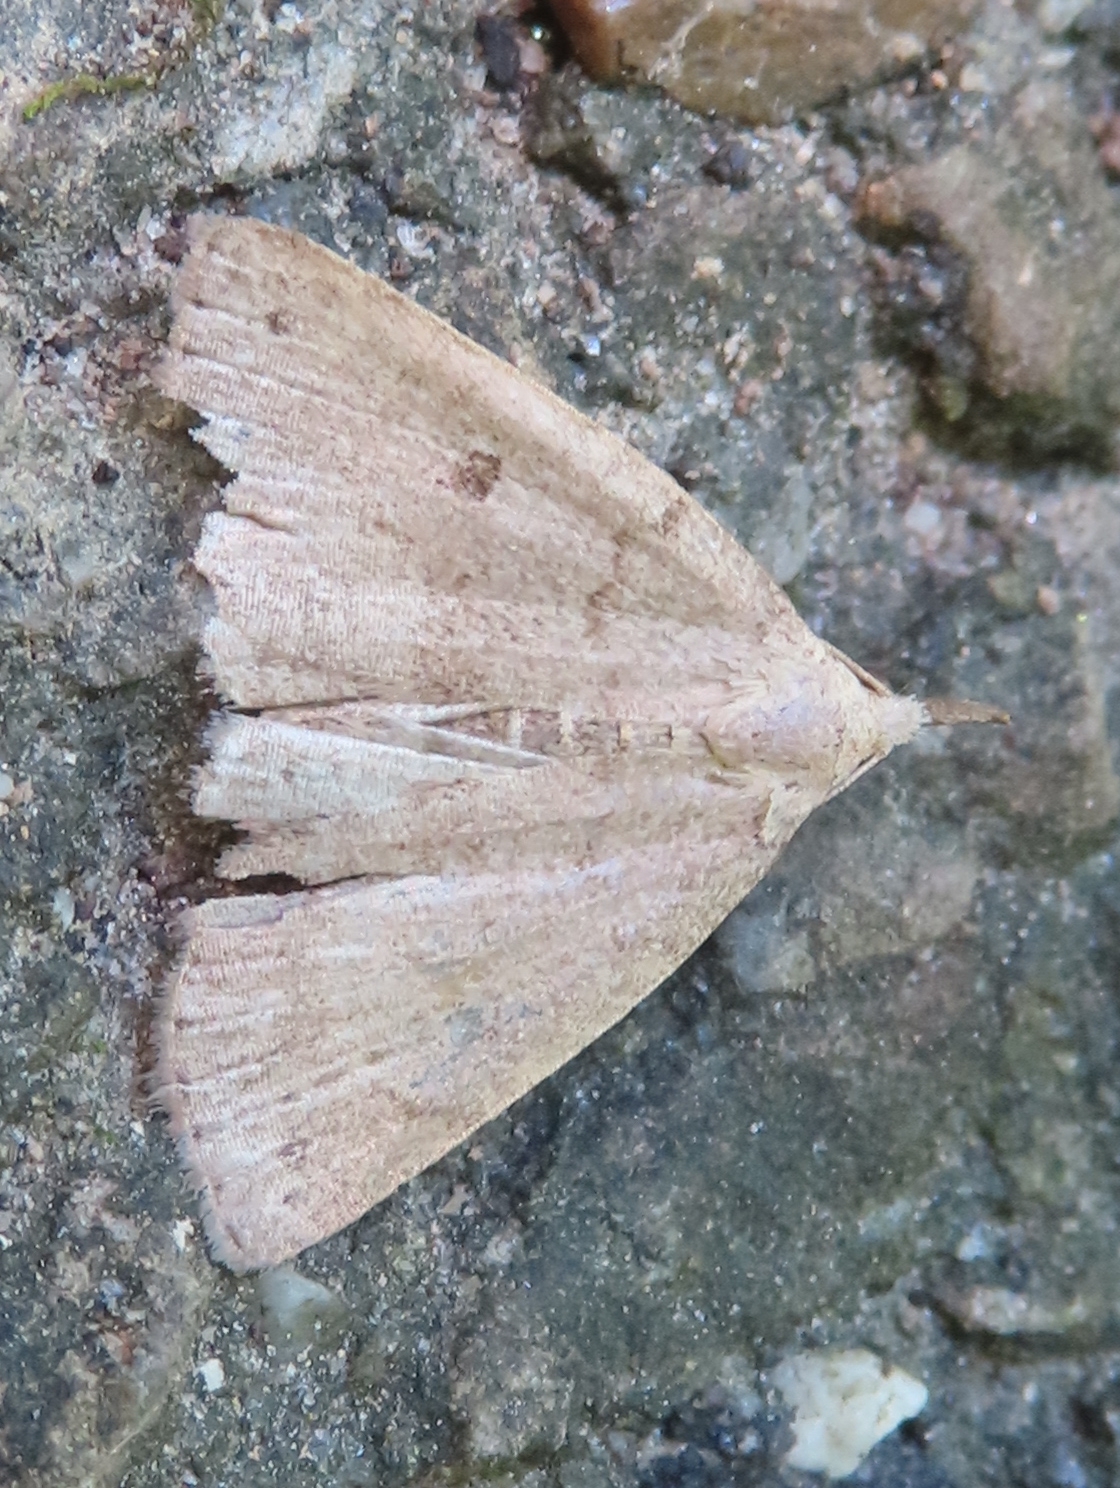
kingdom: Animalia
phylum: Arthropoda
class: Insecta
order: Lepidoptera
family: Erebidae
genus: Macrochilo
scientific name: Macrochilo morbidalis
